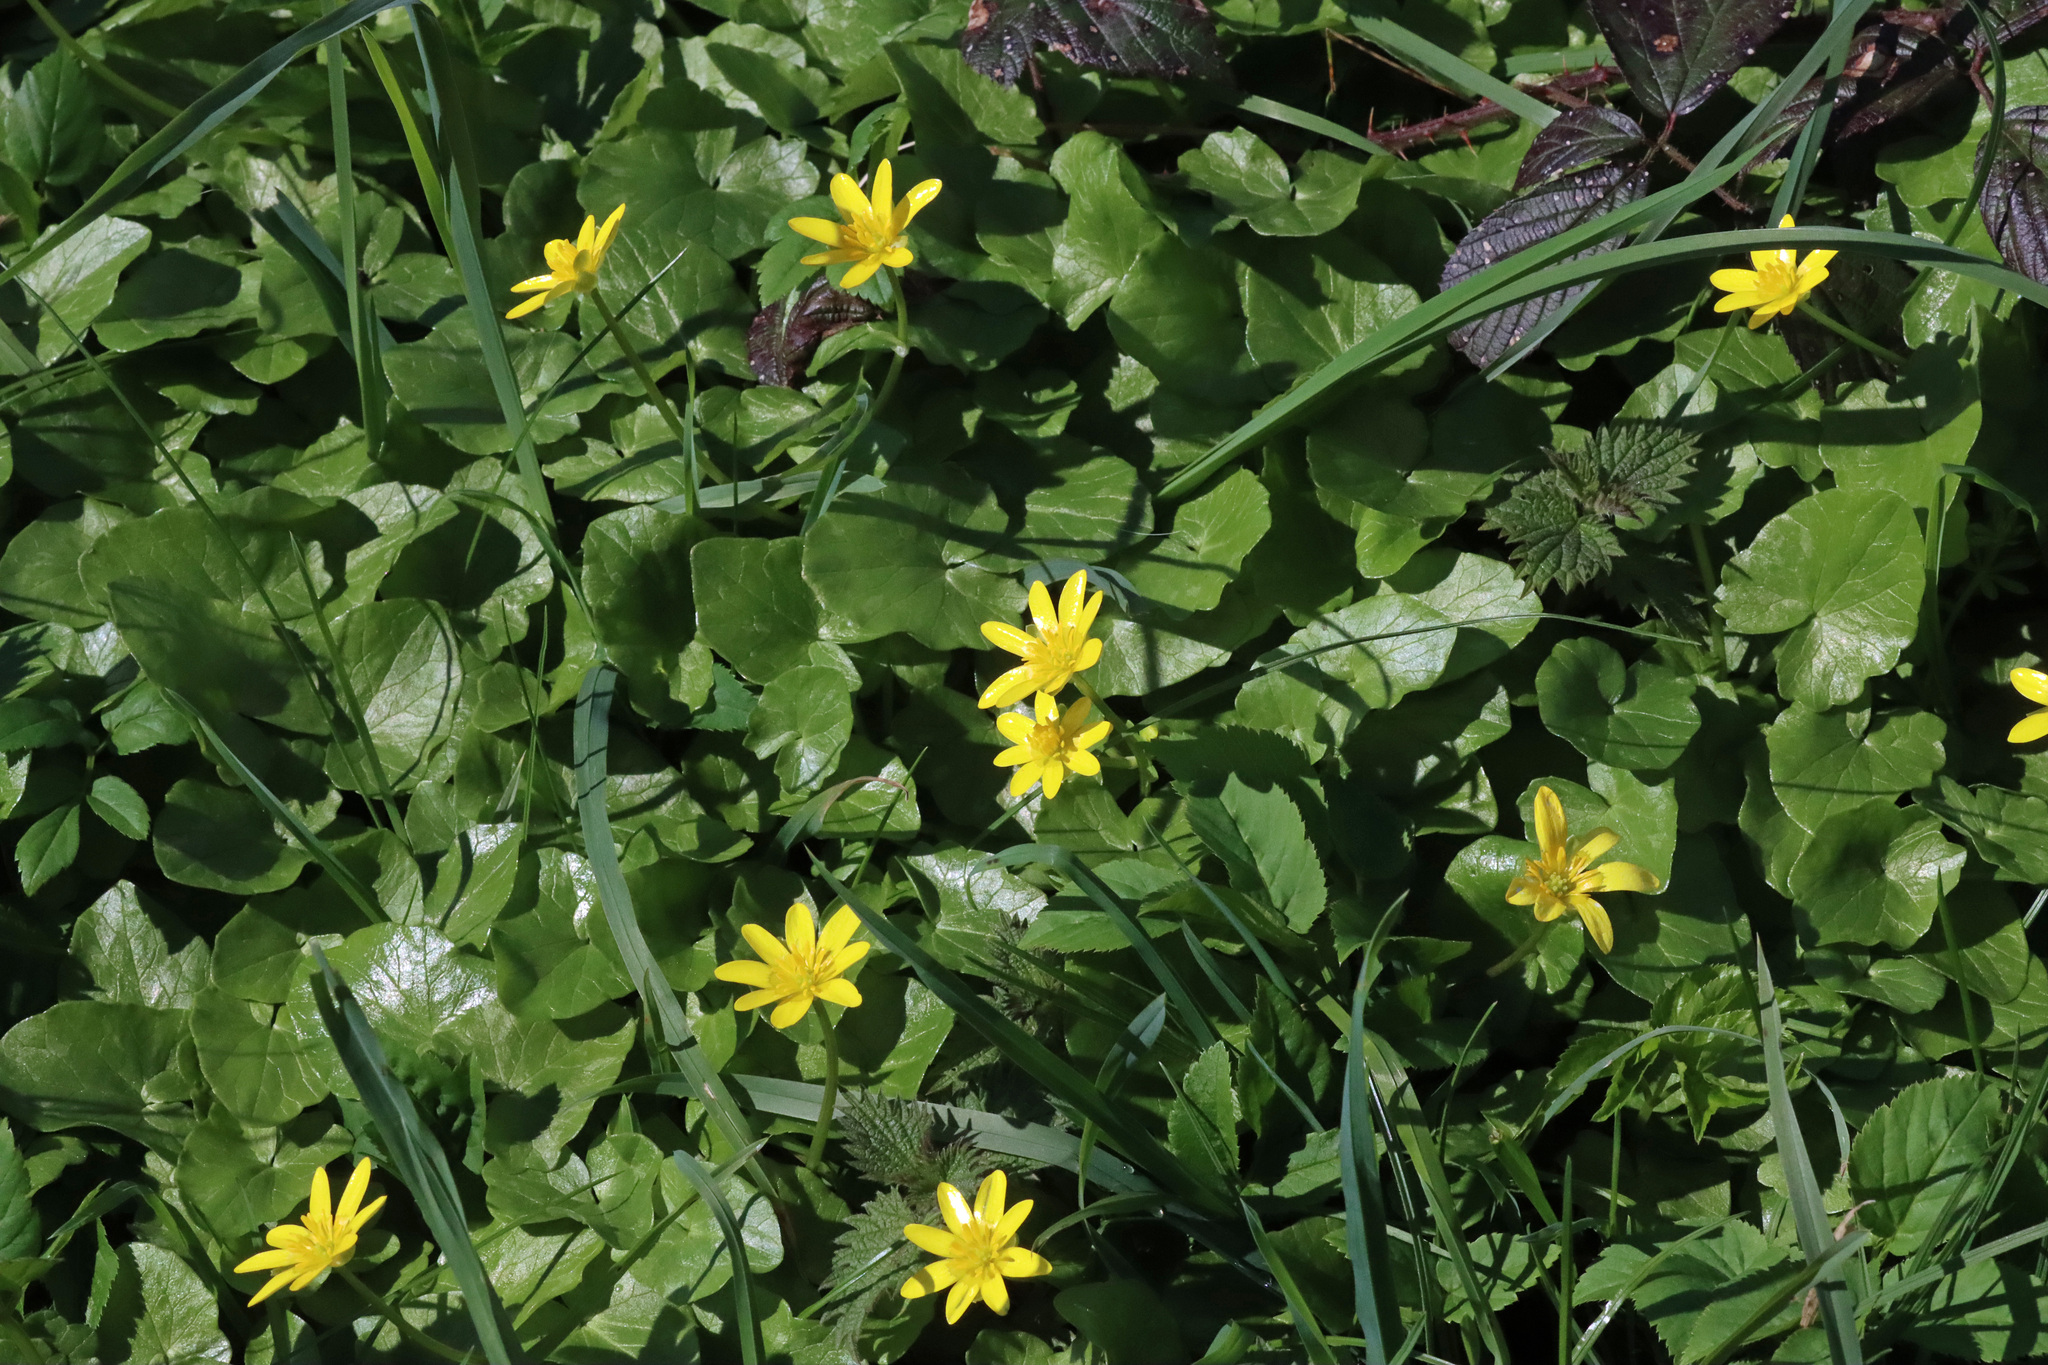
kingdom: Plantae
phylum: Tracheophyta
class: Magnoliopsida
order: Ranunculales
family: Ranunculaceae
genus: Ficaria
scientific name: Ficaria verna
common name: Lesser celandine
